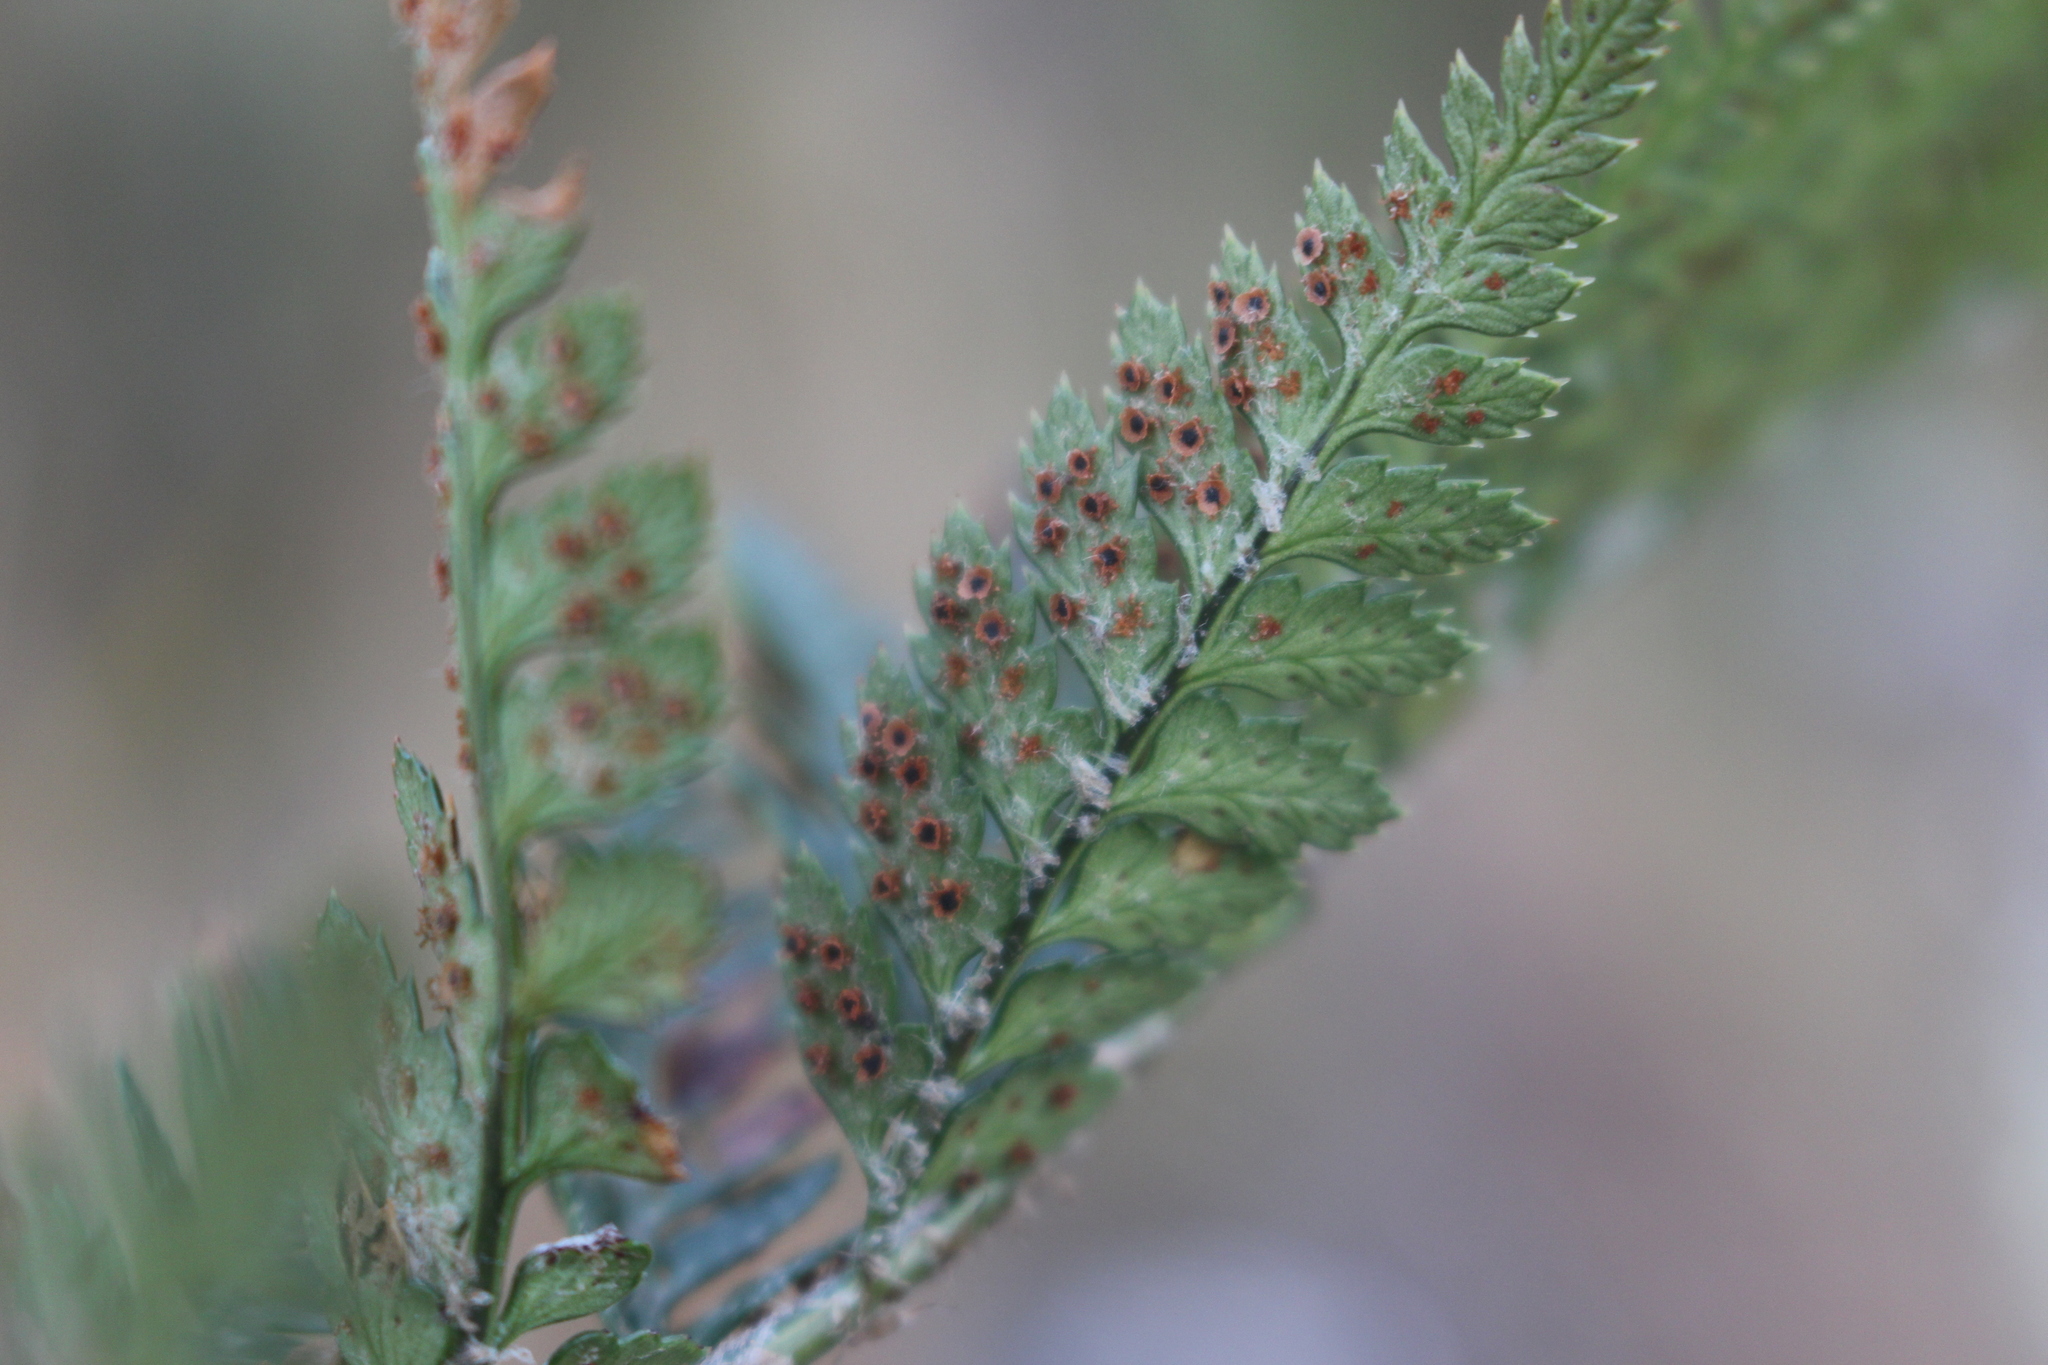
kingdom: Plantae
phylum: Tracheophyta
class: Polypodiopsida
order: Polypodiales
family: Dryopteridaceae
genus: Polystichum
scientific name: Polystichum oculatum
